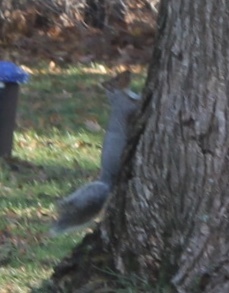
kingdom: Animalia
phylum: Chordata
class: Mammalia
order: Rodentia
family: Sciuridae
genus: Sciurus
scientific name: Sciurus carolinensis
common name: Eastern gray squirrel
